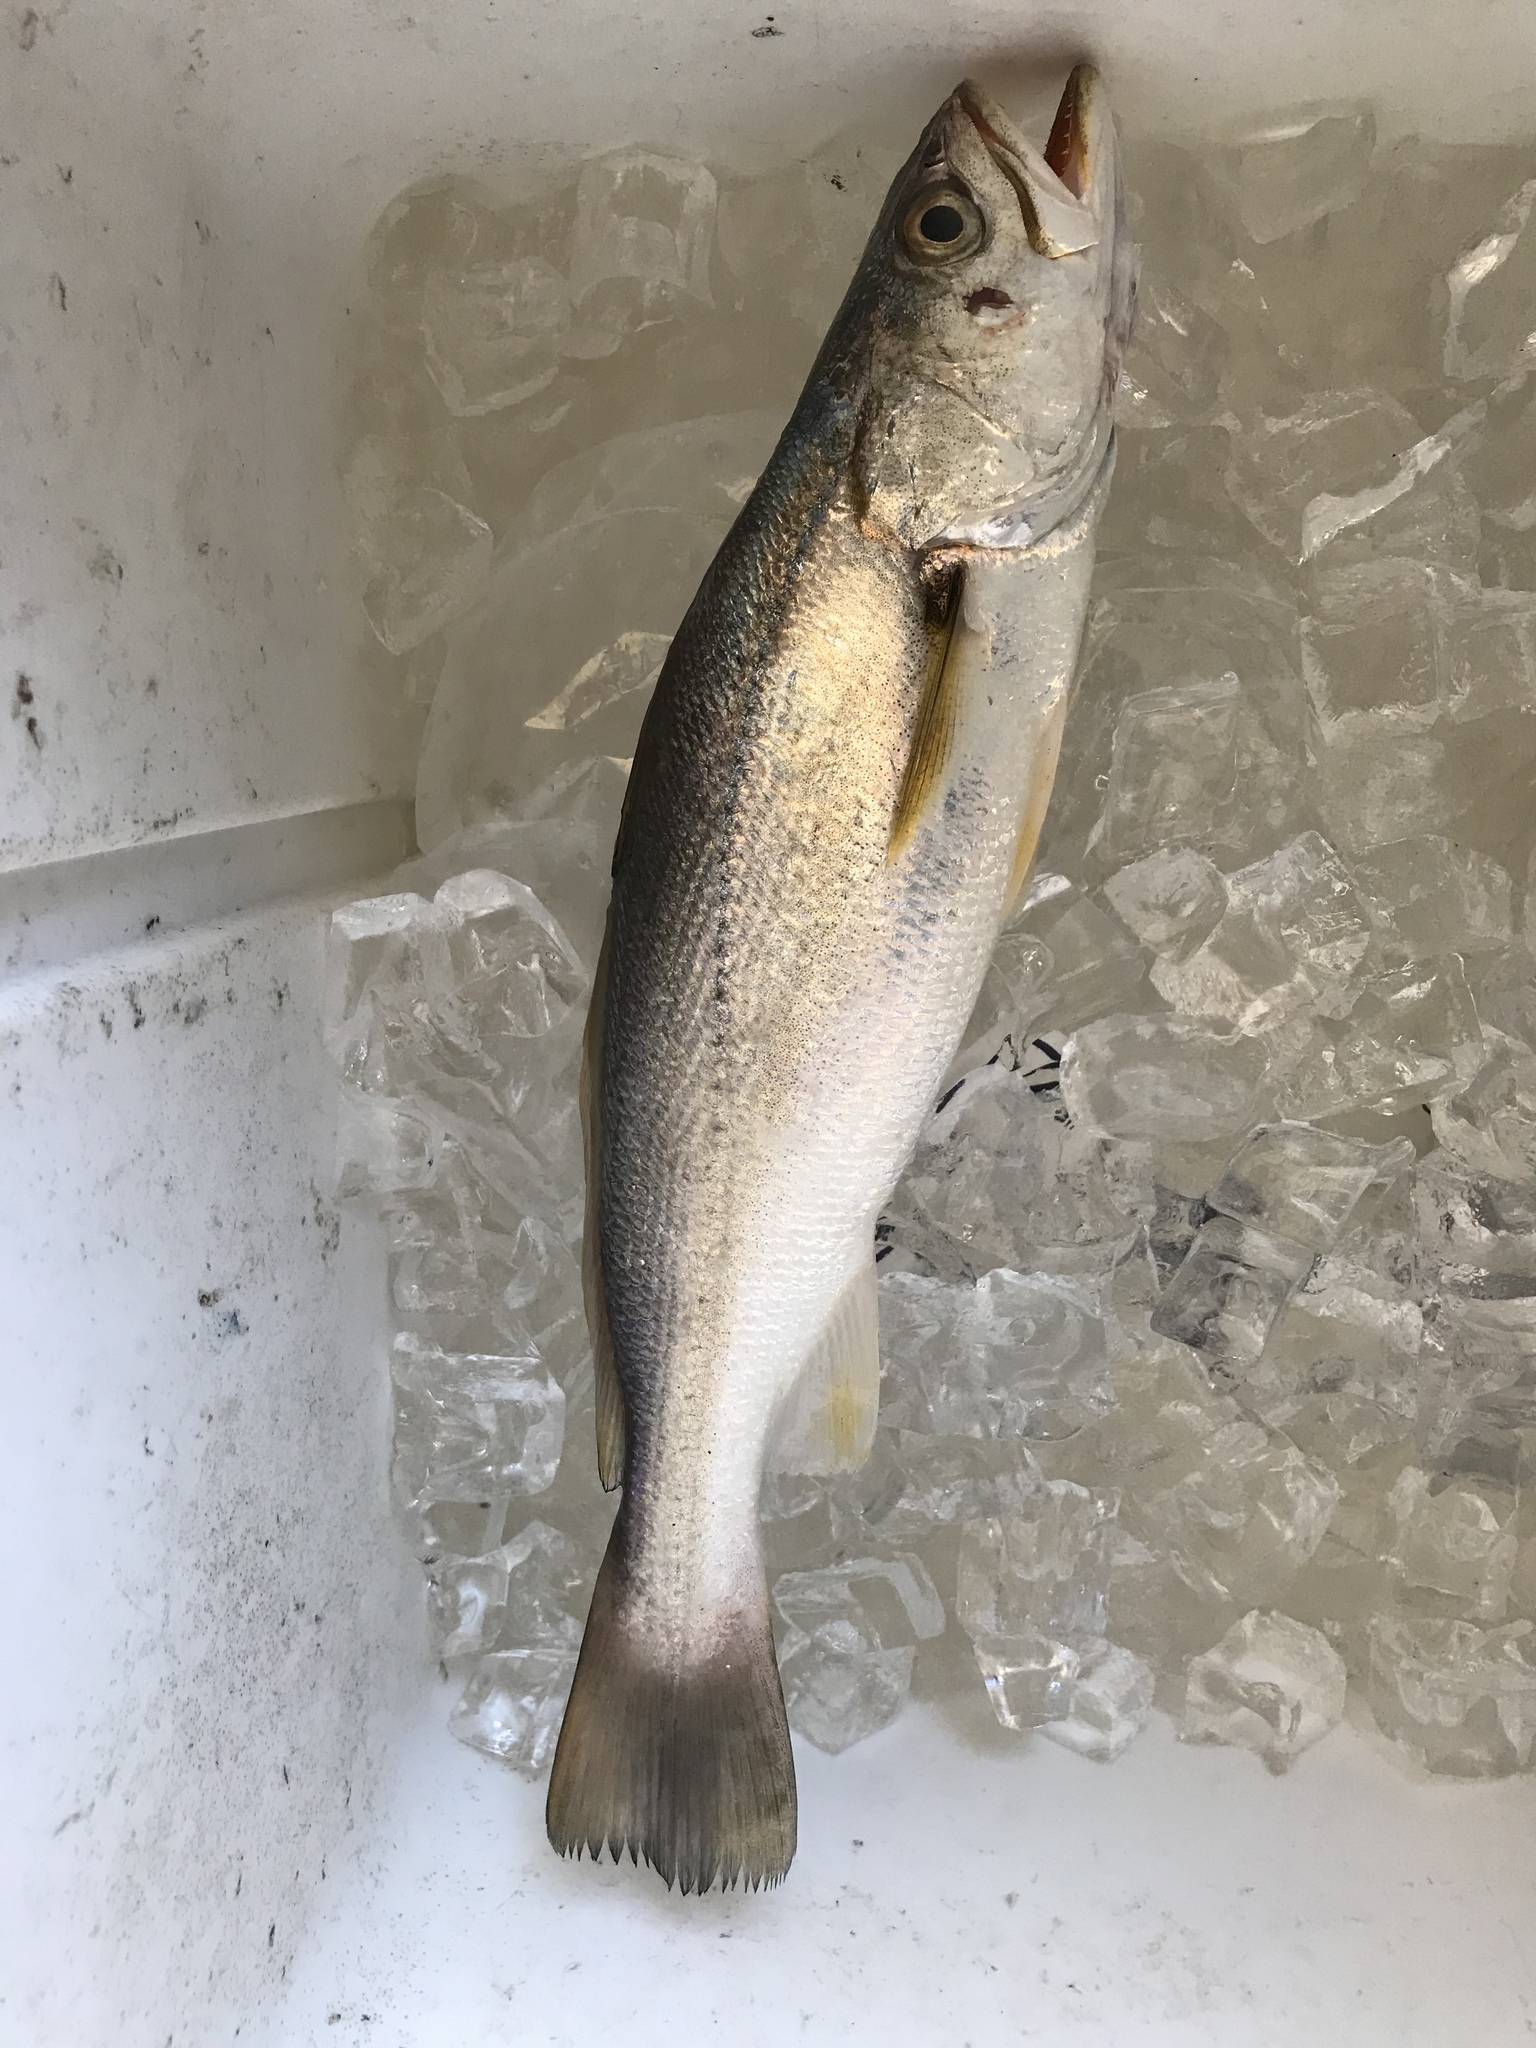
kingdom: Animalia
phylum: Chordata
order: Perciformes
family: Sciaenidae
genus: Cynoscion
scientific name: Cynoscion arenarius
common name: Sand seatrout
